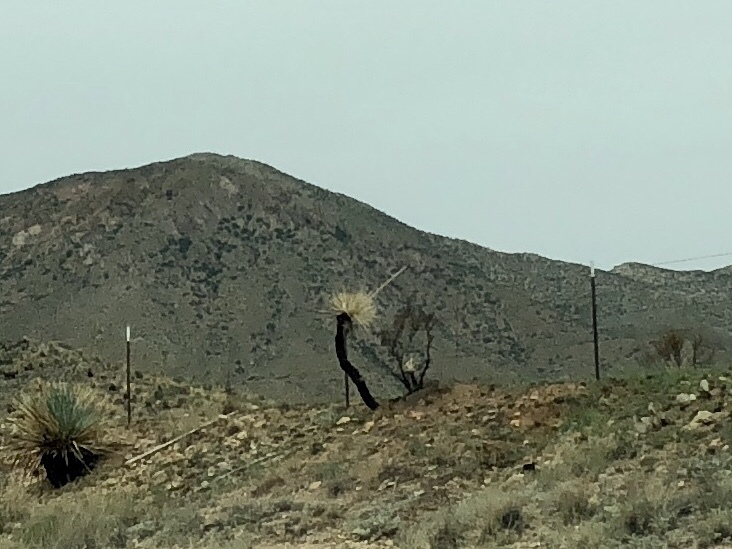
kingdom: Plantae
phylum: Tracheophyta
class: Liliopsida
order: Asparagales
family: Asparagaceae
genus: Yucca
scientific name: Yucca elata
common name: Palmella
